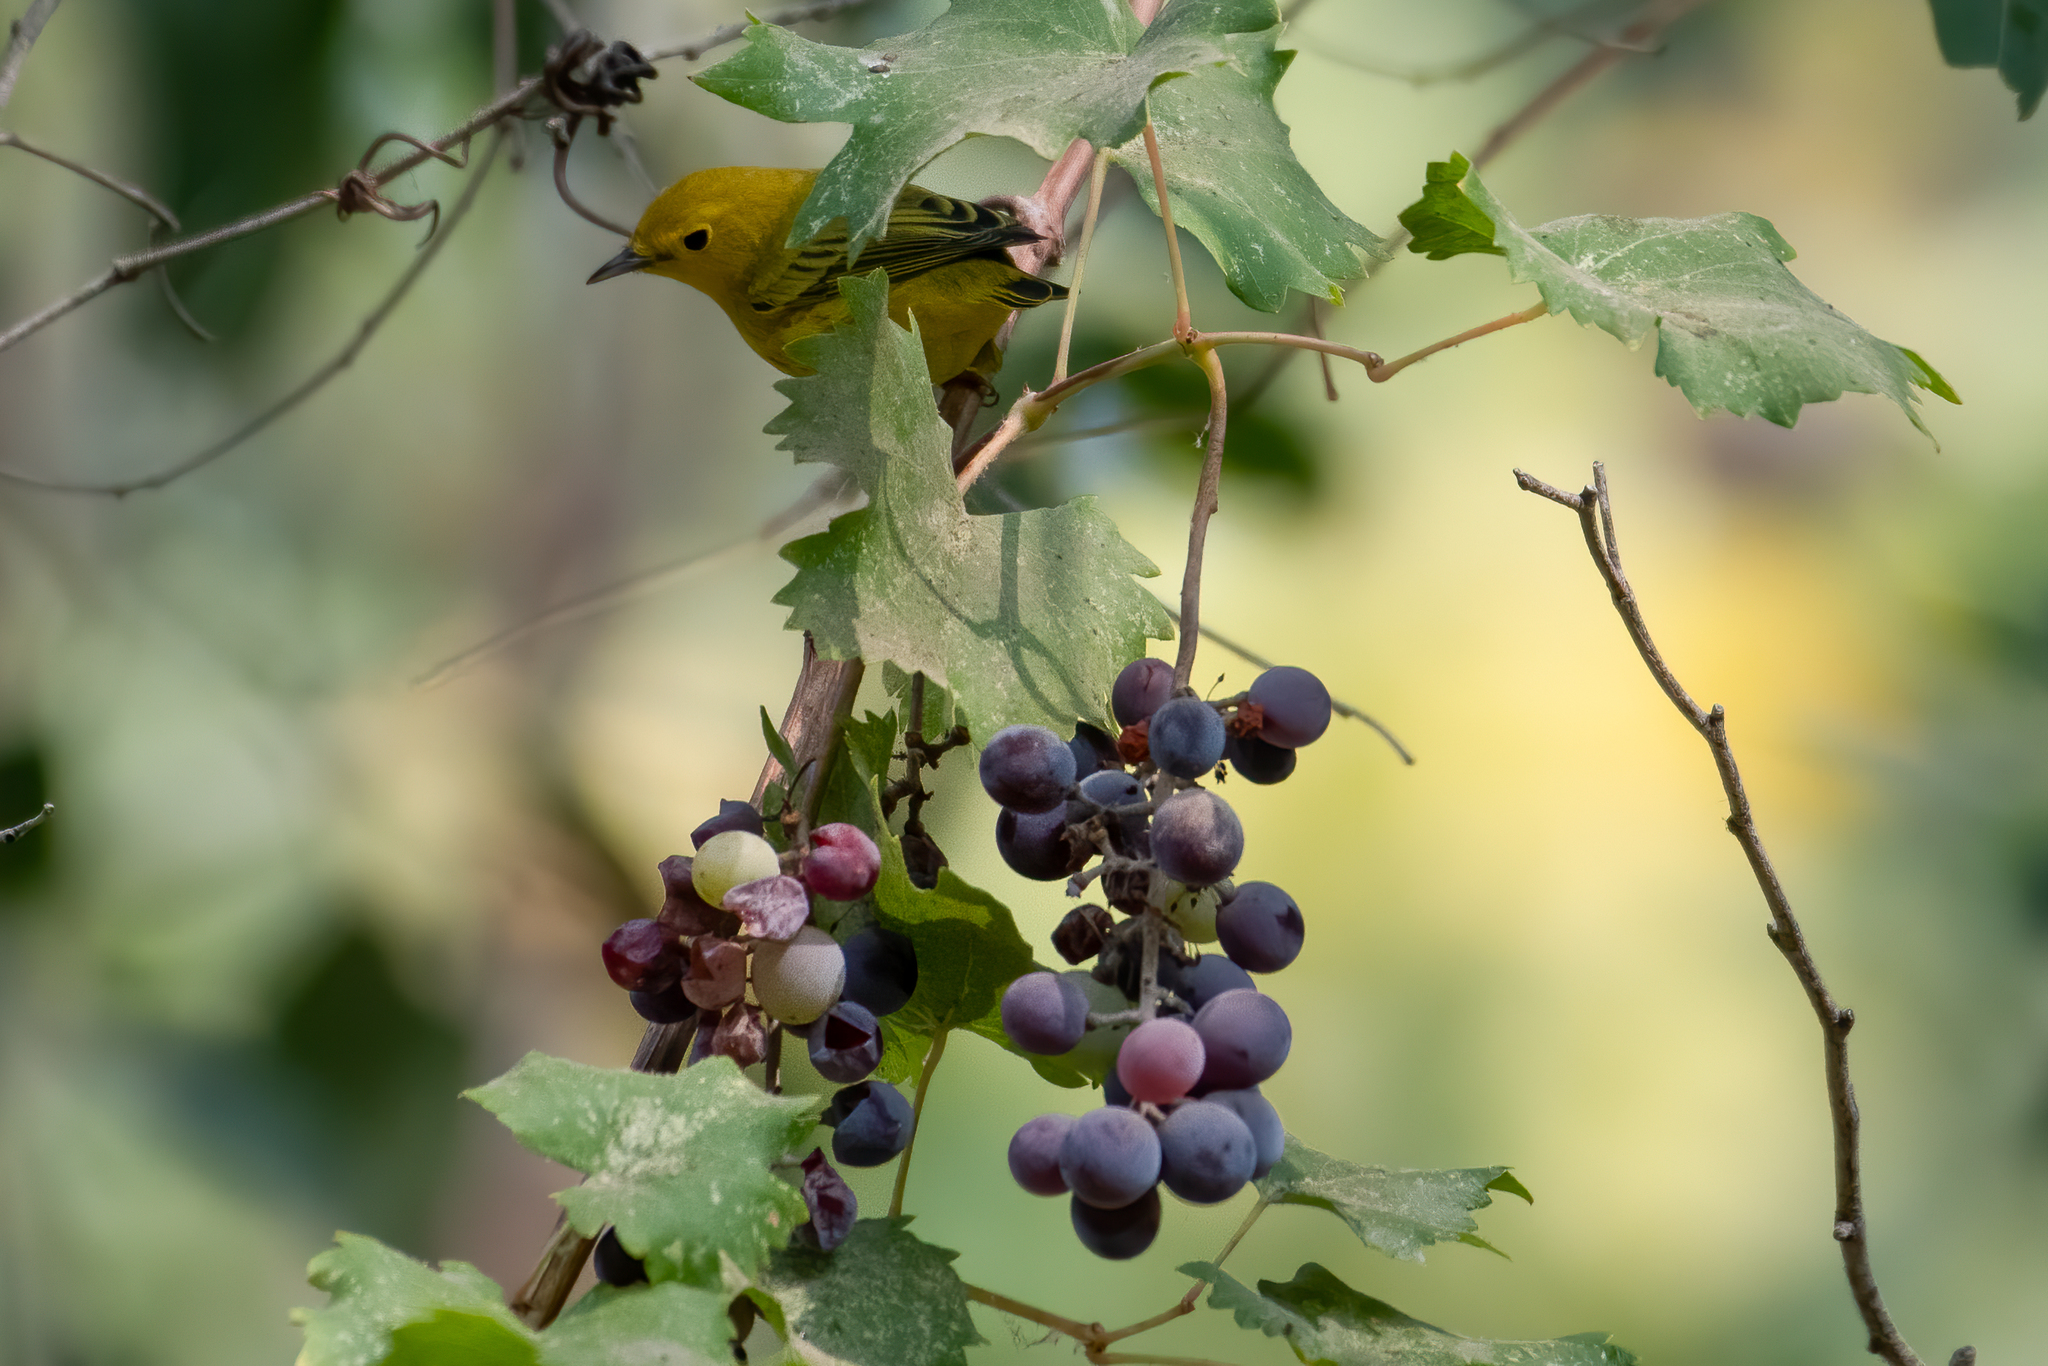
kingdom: Animalia
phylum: Chordata
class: Aves
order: Passeriformes
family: Parulidae
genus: Setophaga
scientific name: Setophaga petechia
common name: Yellow warbler
